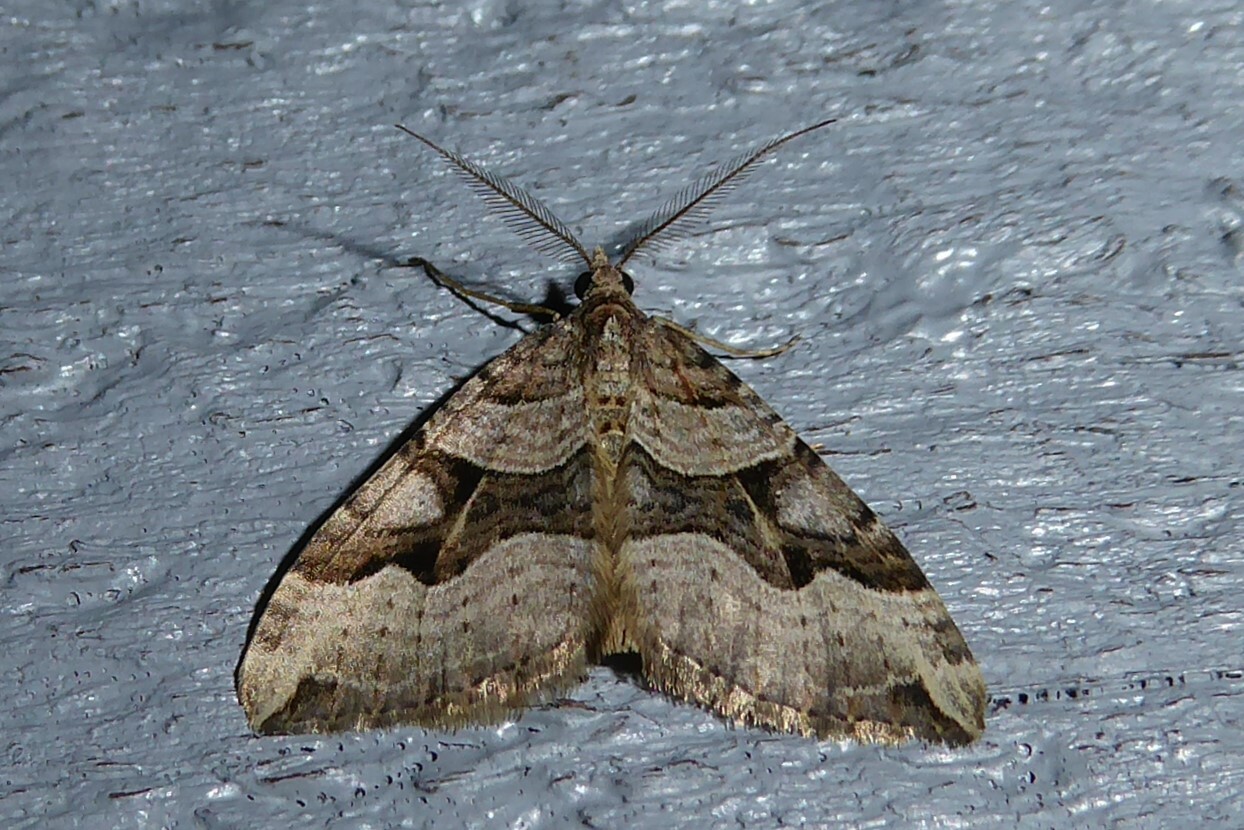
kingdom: Animalia
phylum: Arthropoda
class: Insecta
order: Lepidoptera
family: Geometridae
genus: Xanthorhoe
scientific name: Xanthorhoe semifissata
